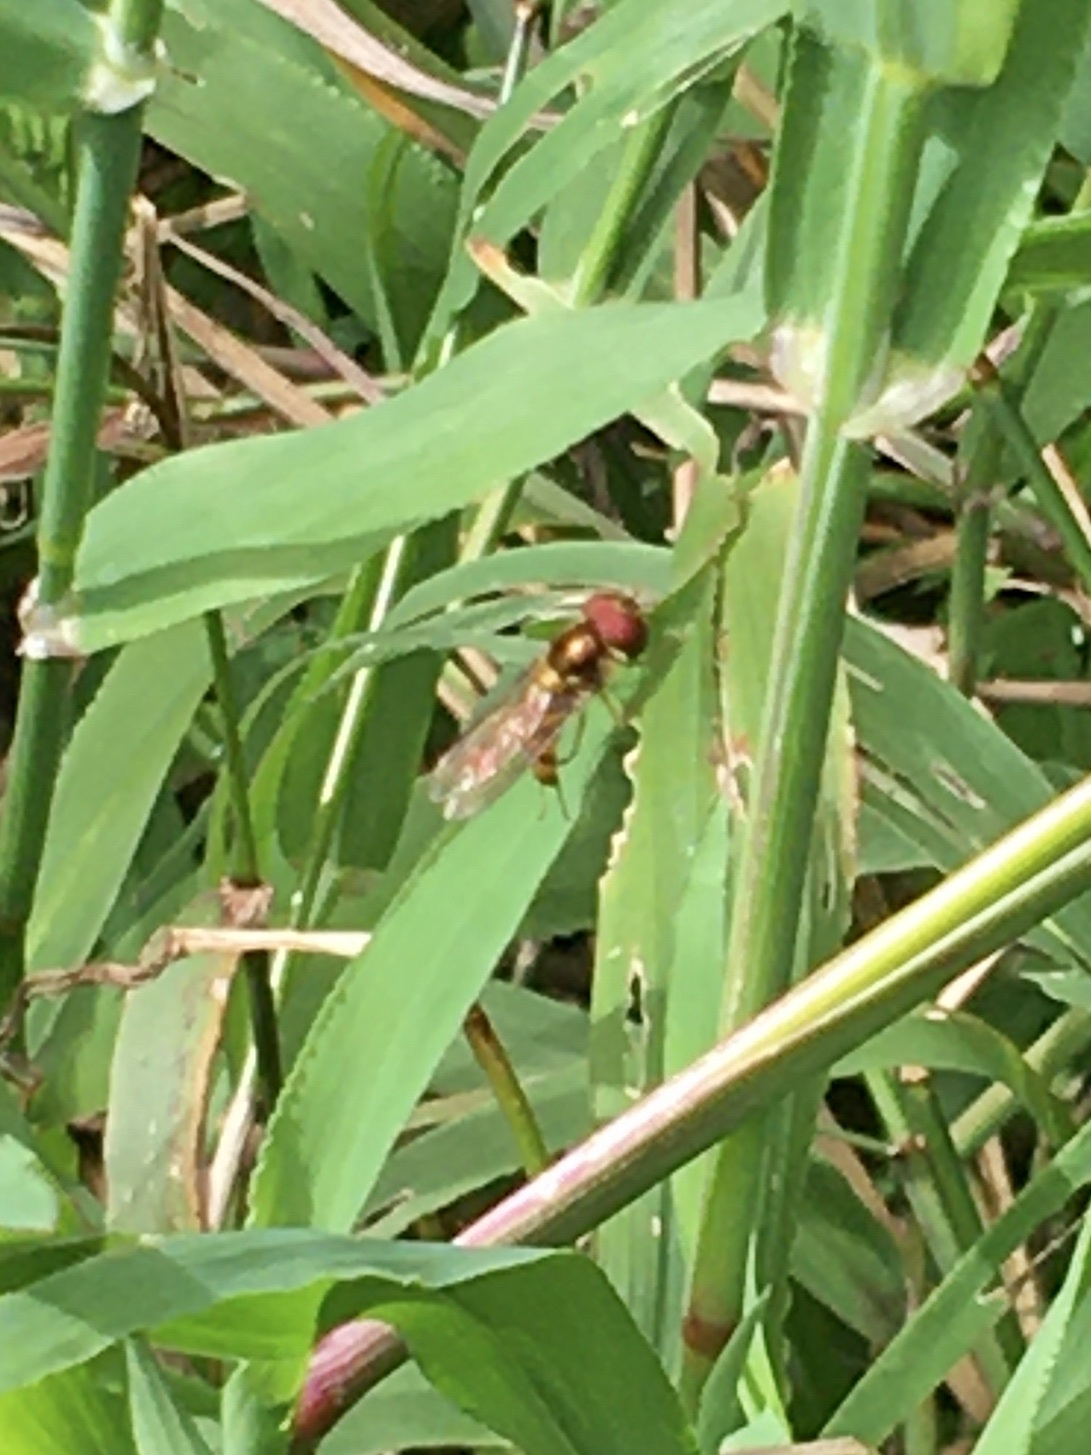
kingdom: Animalia
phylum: Arthropoda
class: Insecta
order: Diptera
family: Syrphidae
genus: Episyrphus
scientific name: Episyrphus trisectus
